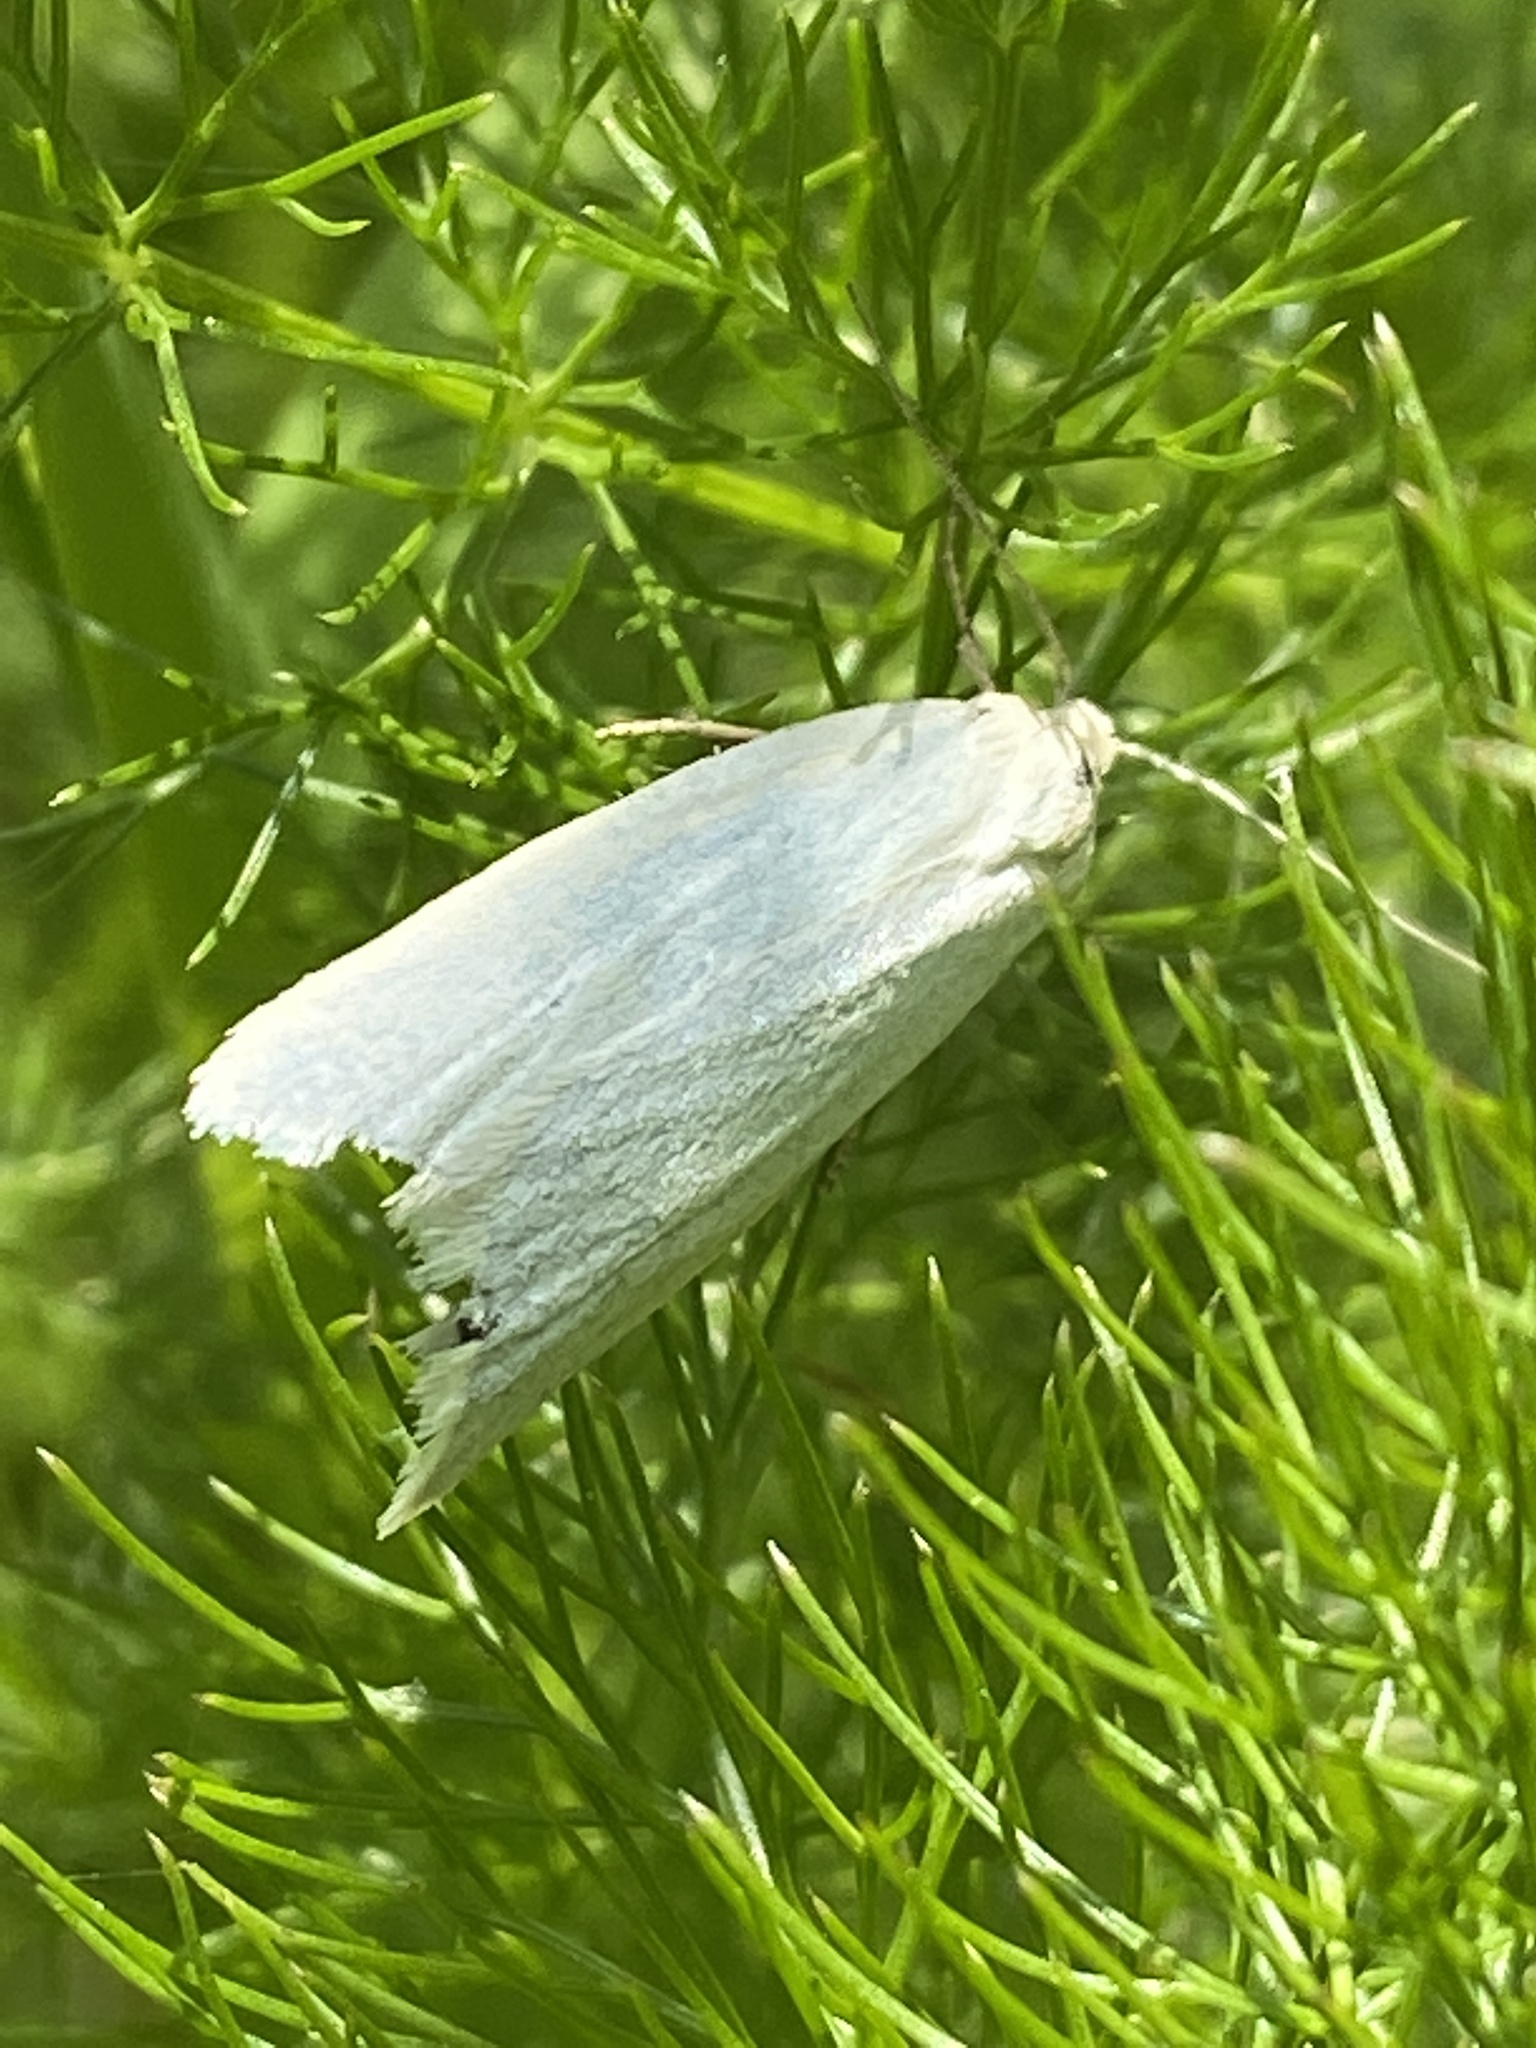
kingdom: Animalia
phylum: Arthropoda
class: Insecta
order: Lepidoptera
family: Tortricidae
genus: Eana
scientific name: Eana argentana
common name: Silver shade
